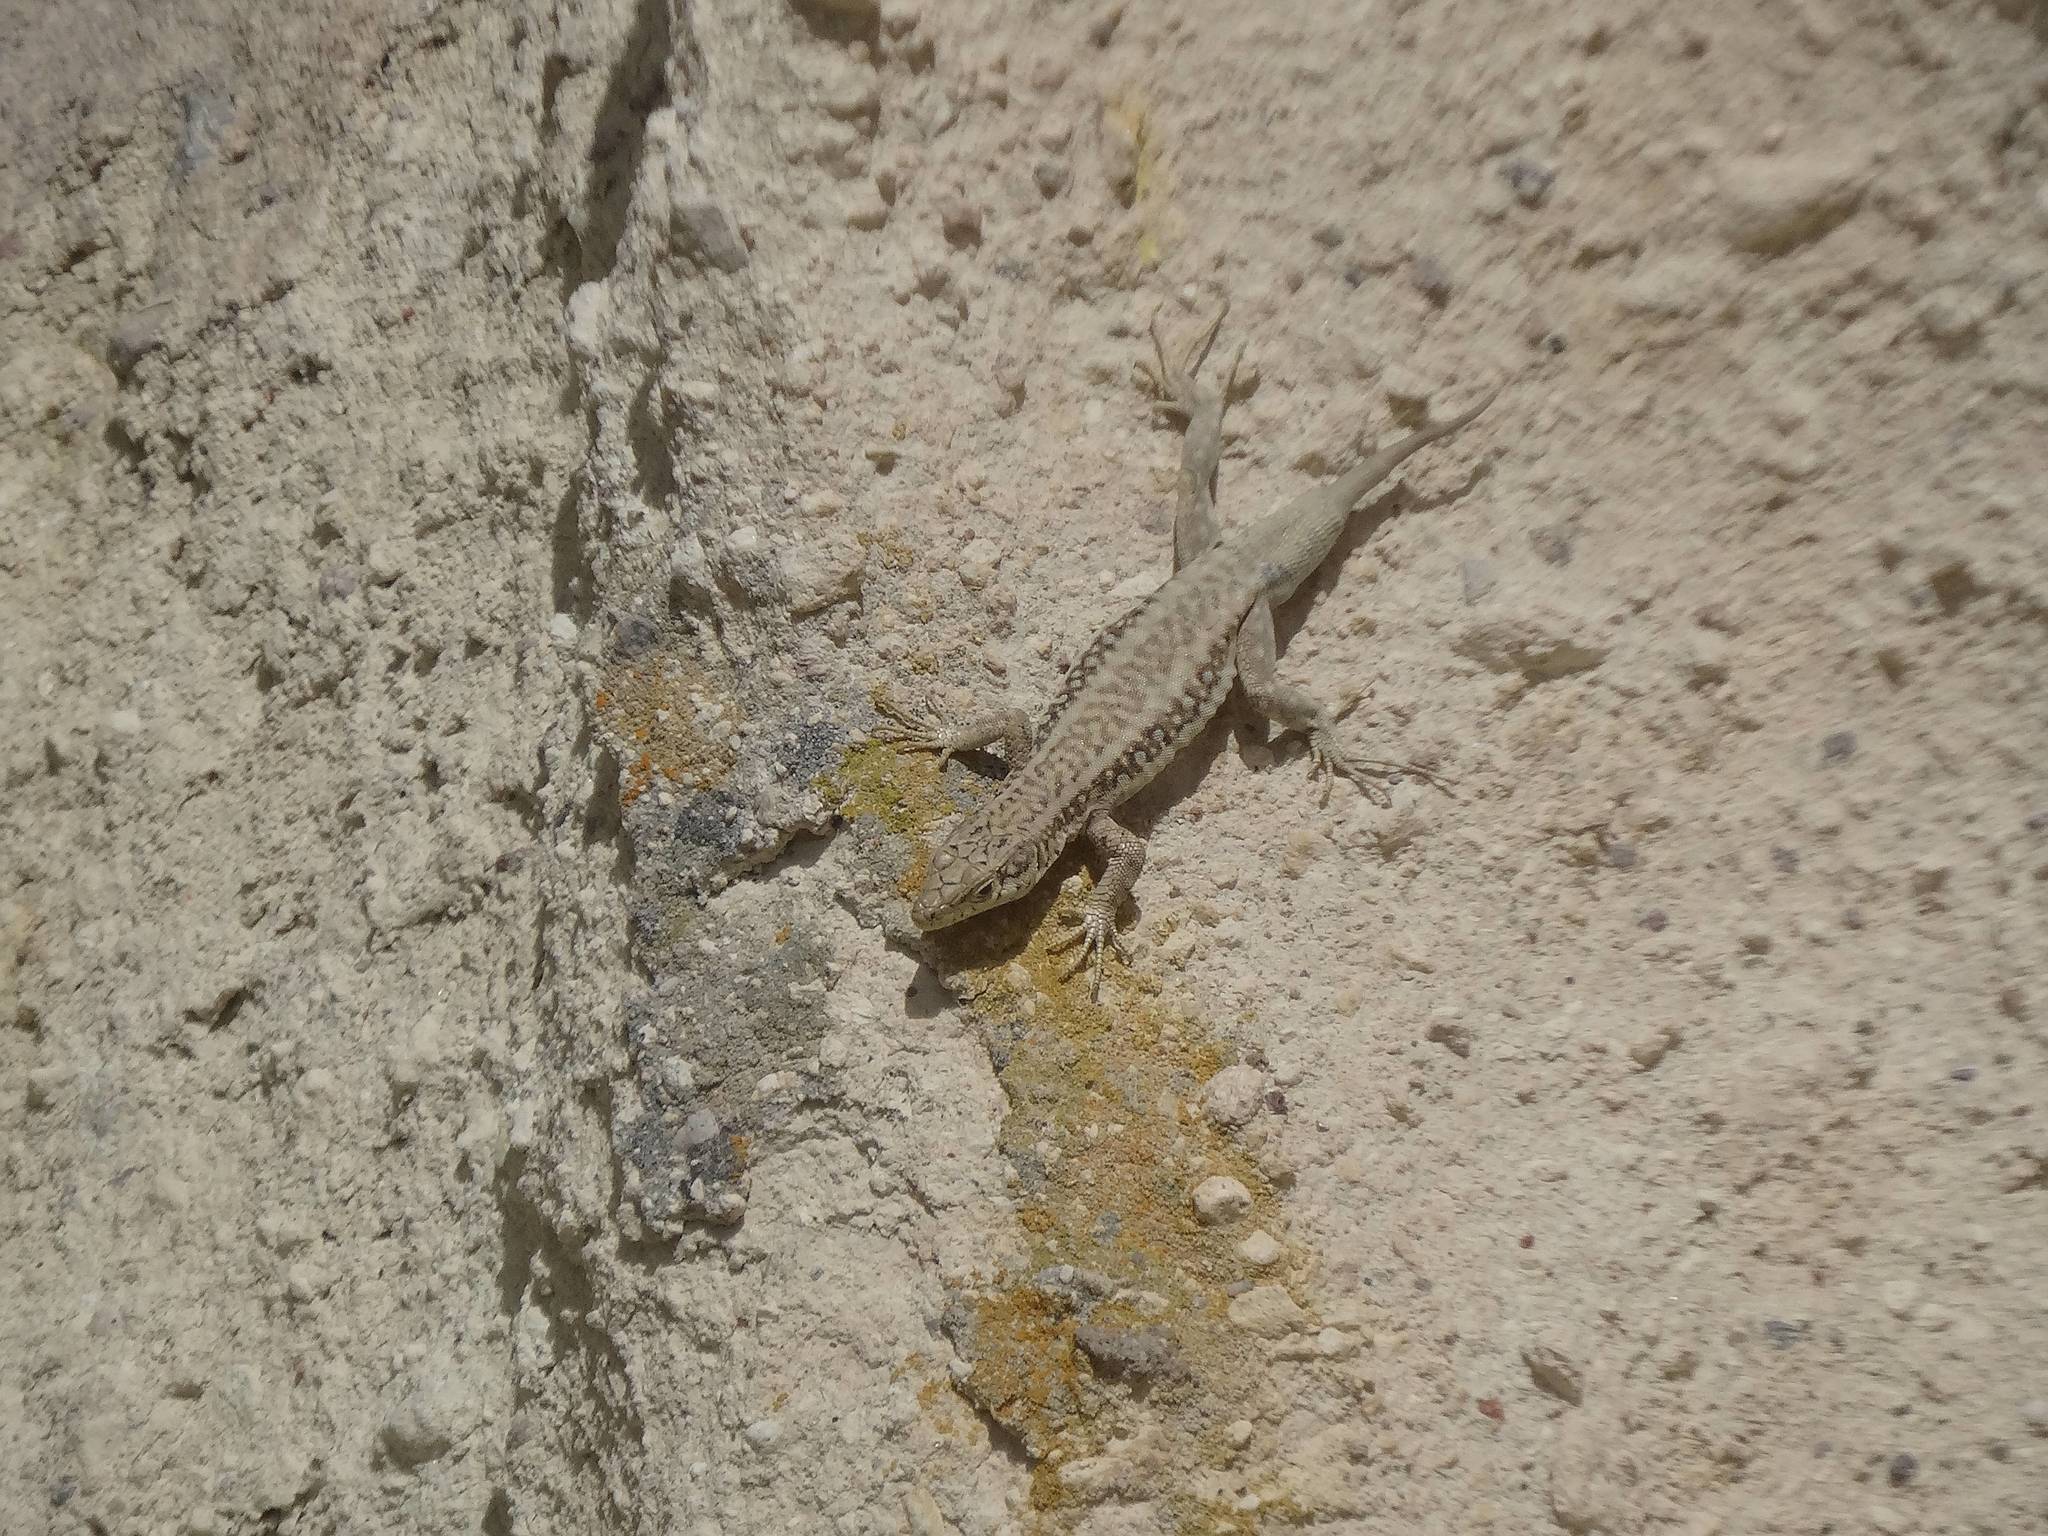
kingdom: Animalia
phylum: Chordata
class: Squamata
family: Lacertidae
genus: Apathya
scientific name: Apathya cappadocica
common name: Anatolian lizard
